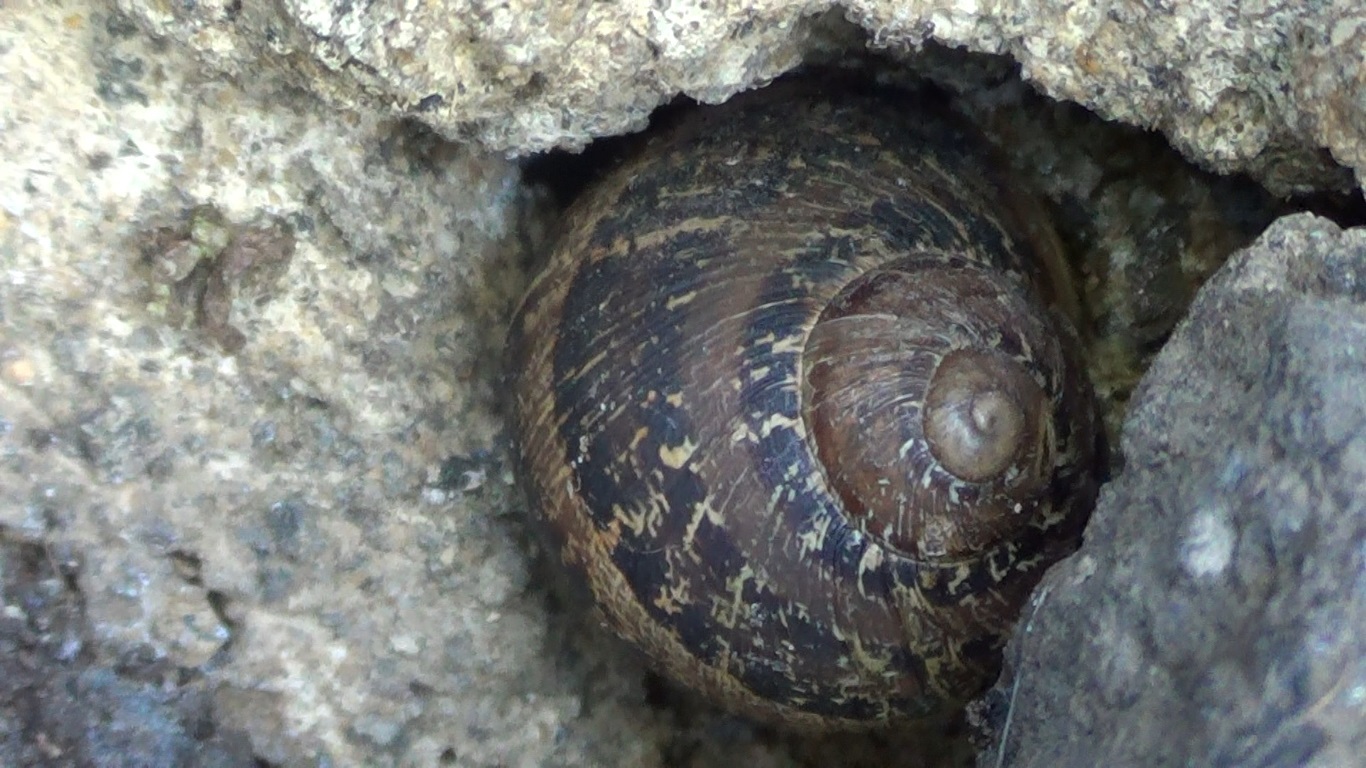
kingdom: Animalia
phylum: Mollusca
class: Gastropoda
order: Stylommatophora
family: Helicidae
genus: Cornu
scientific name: Cornu aspersum
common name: Brown garden snail
